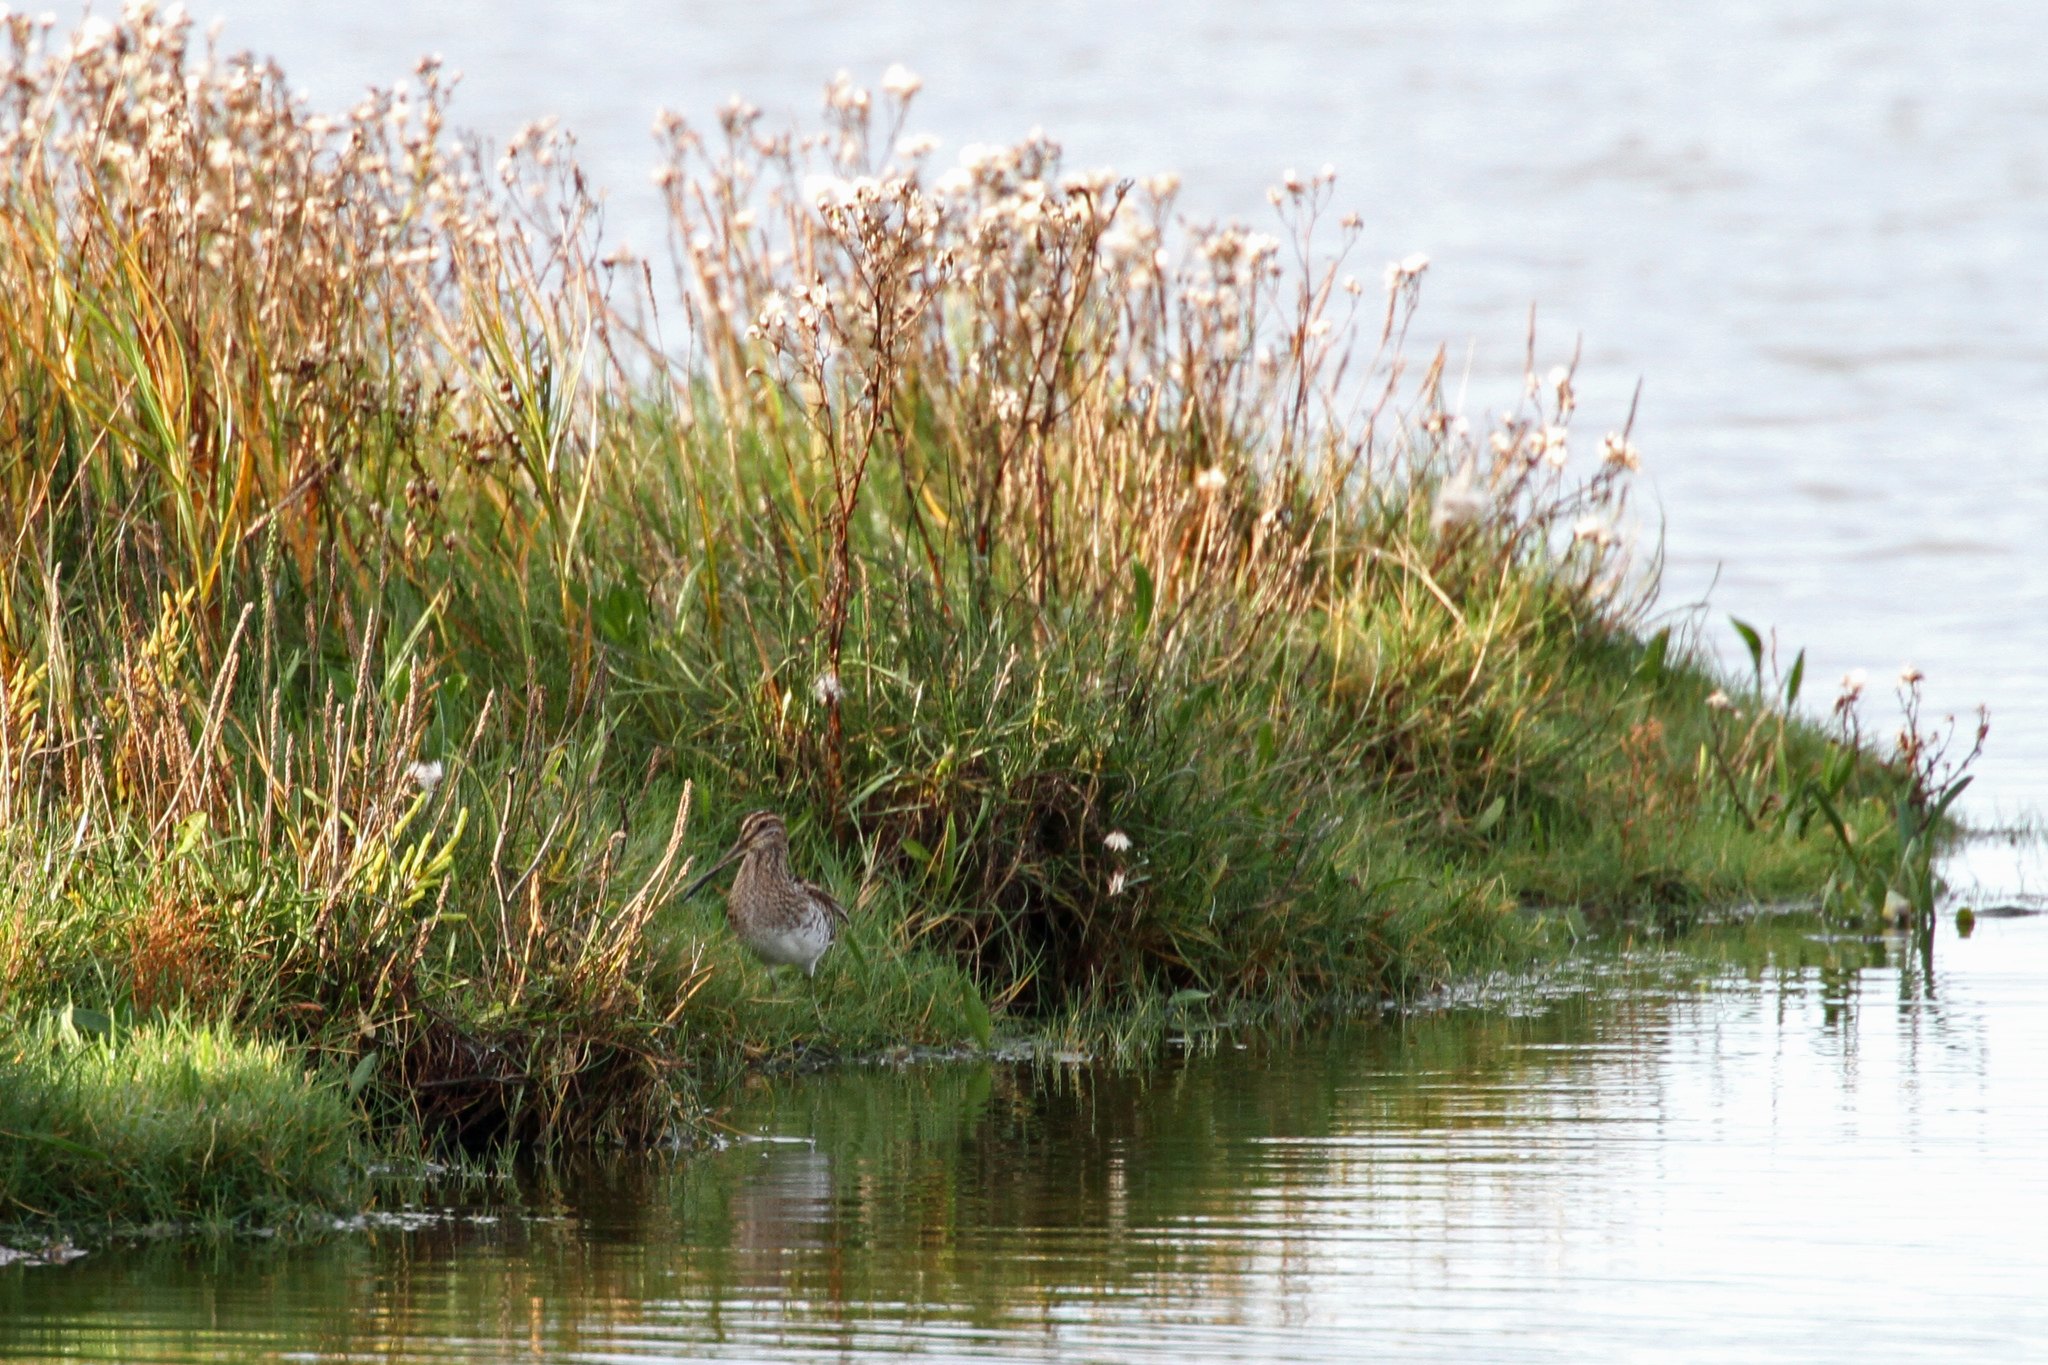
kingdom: Animalia
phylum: Chordata
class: Aves
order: Charadriiformes
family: Scolopacidae
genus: Gallinago
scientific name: Gallinago gallinago
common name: Common snipe
